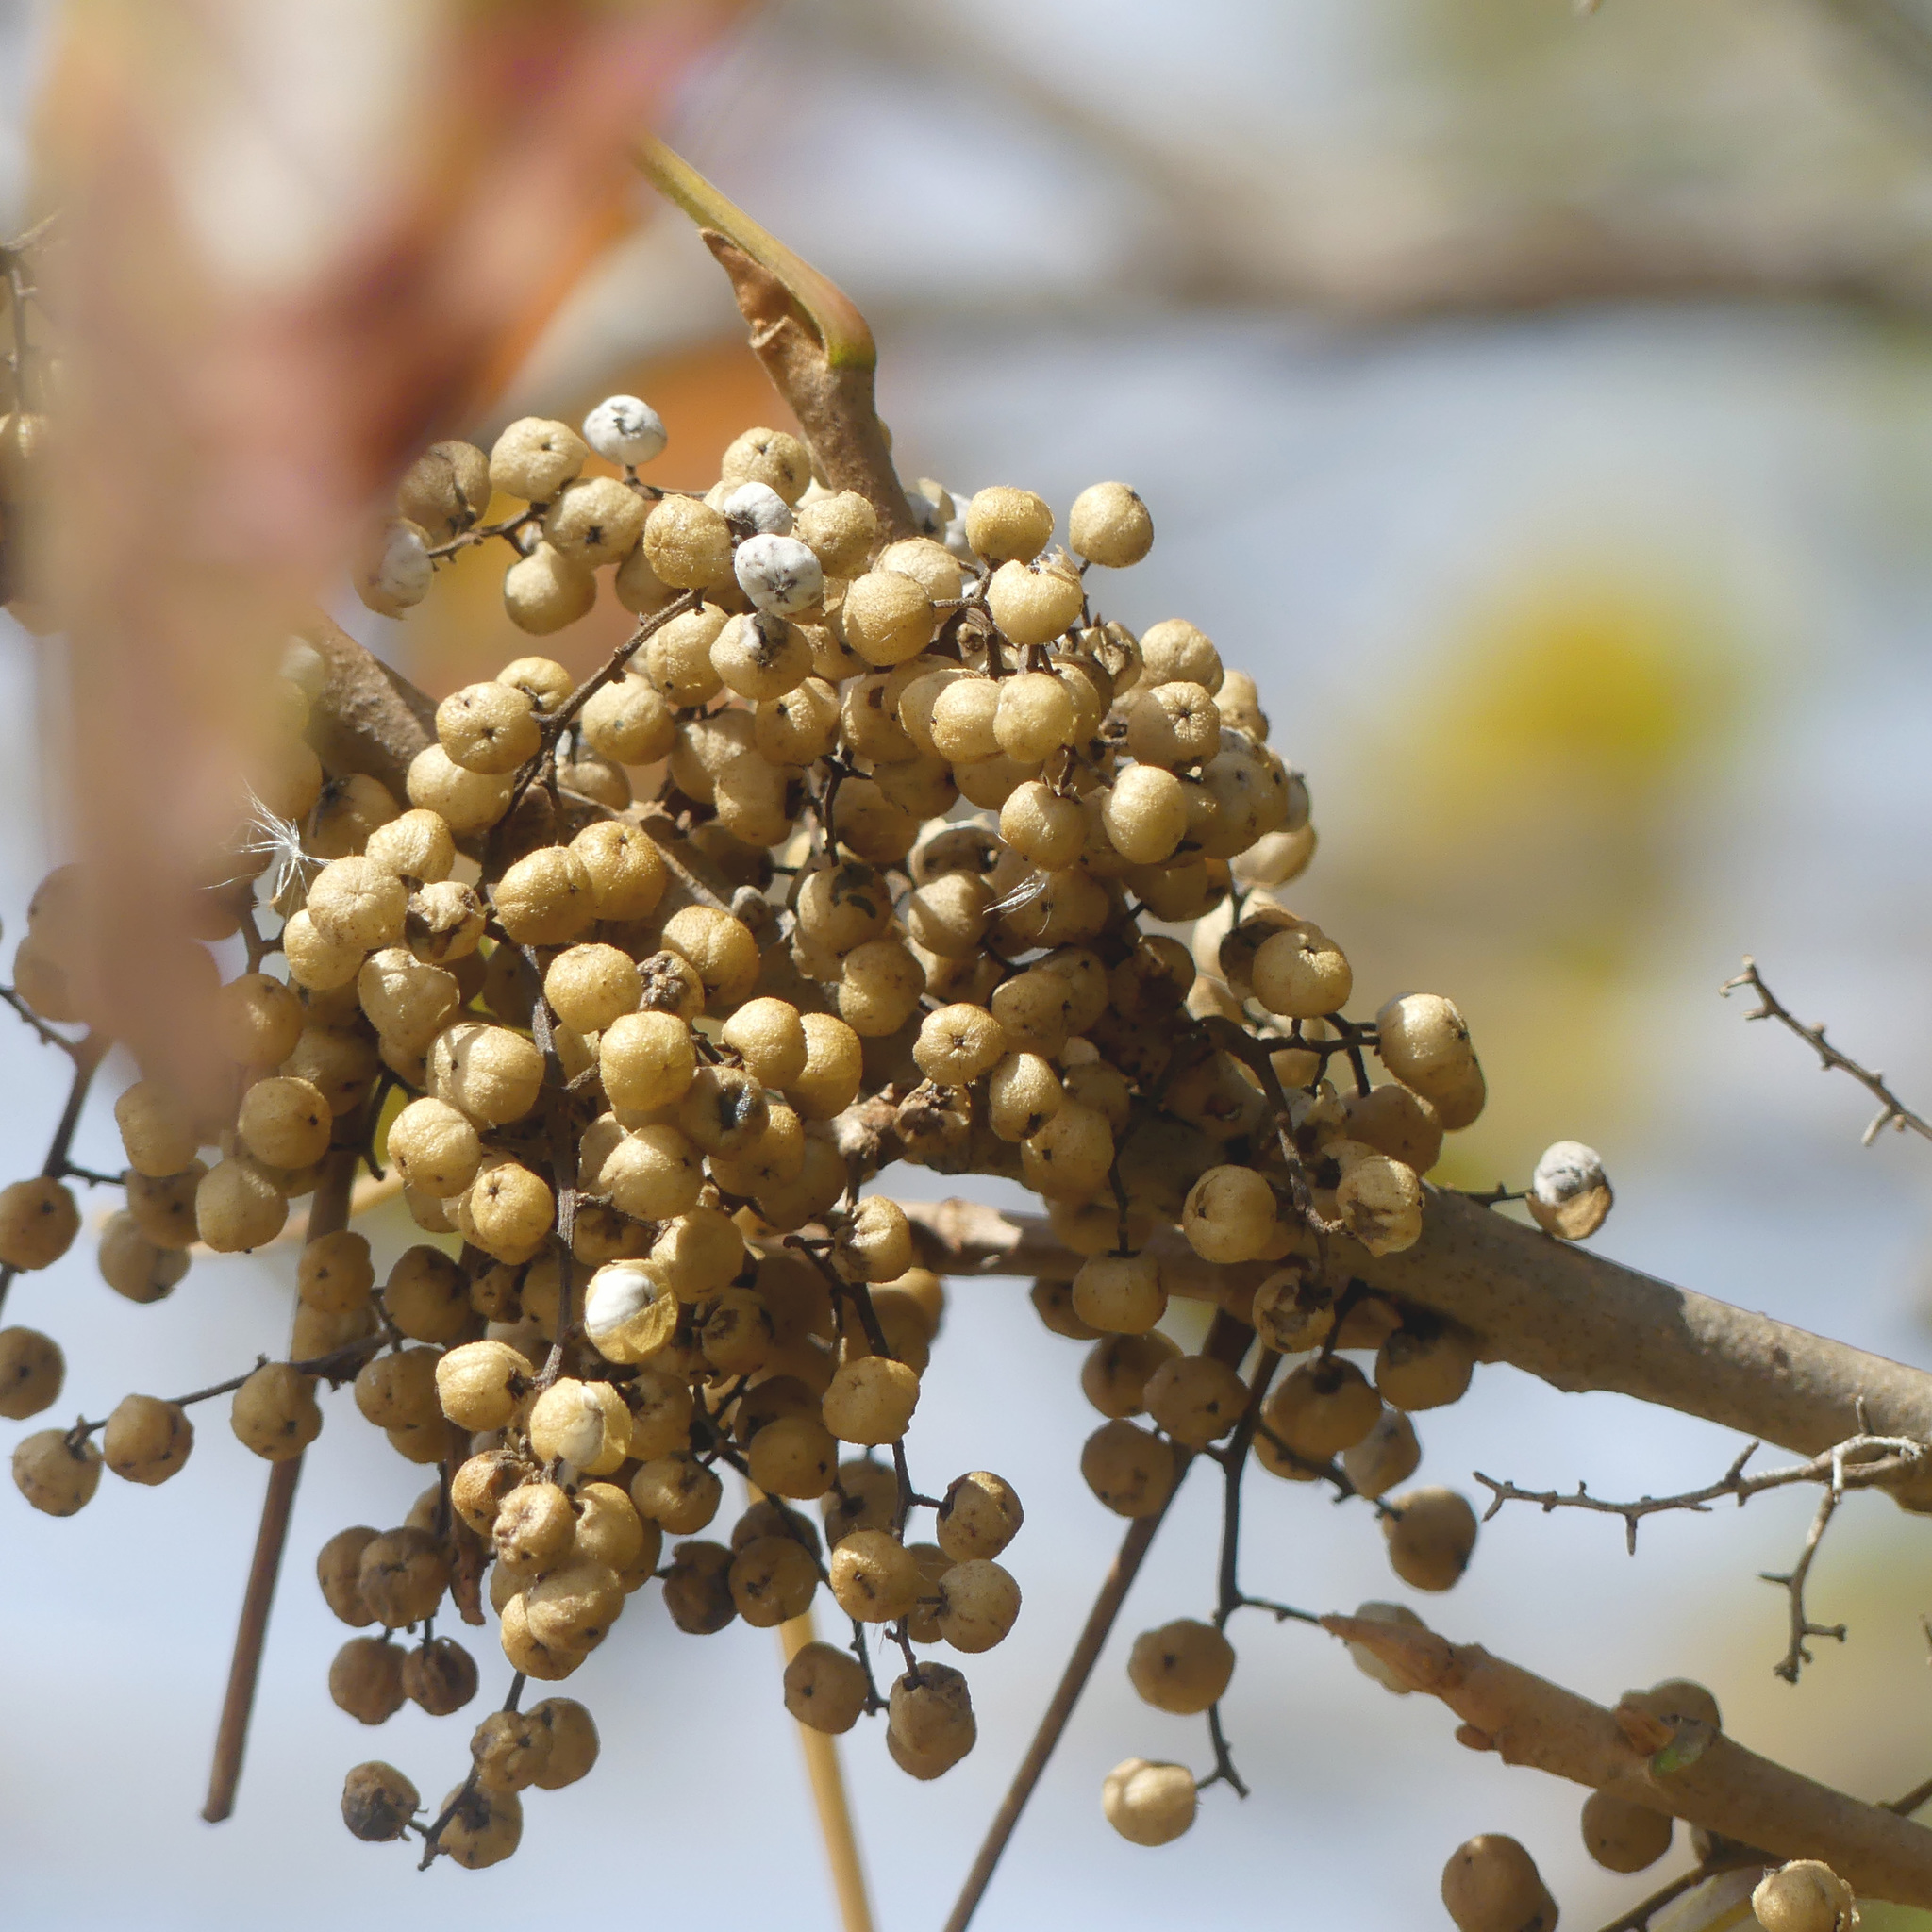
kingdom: Plantae
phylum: Tracheophyta
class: Magnoliopsida
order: Sapindales
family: Anacardiaceae
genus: Toxicodendron
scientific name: Toxicodendron radicans
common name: Poison ivy
